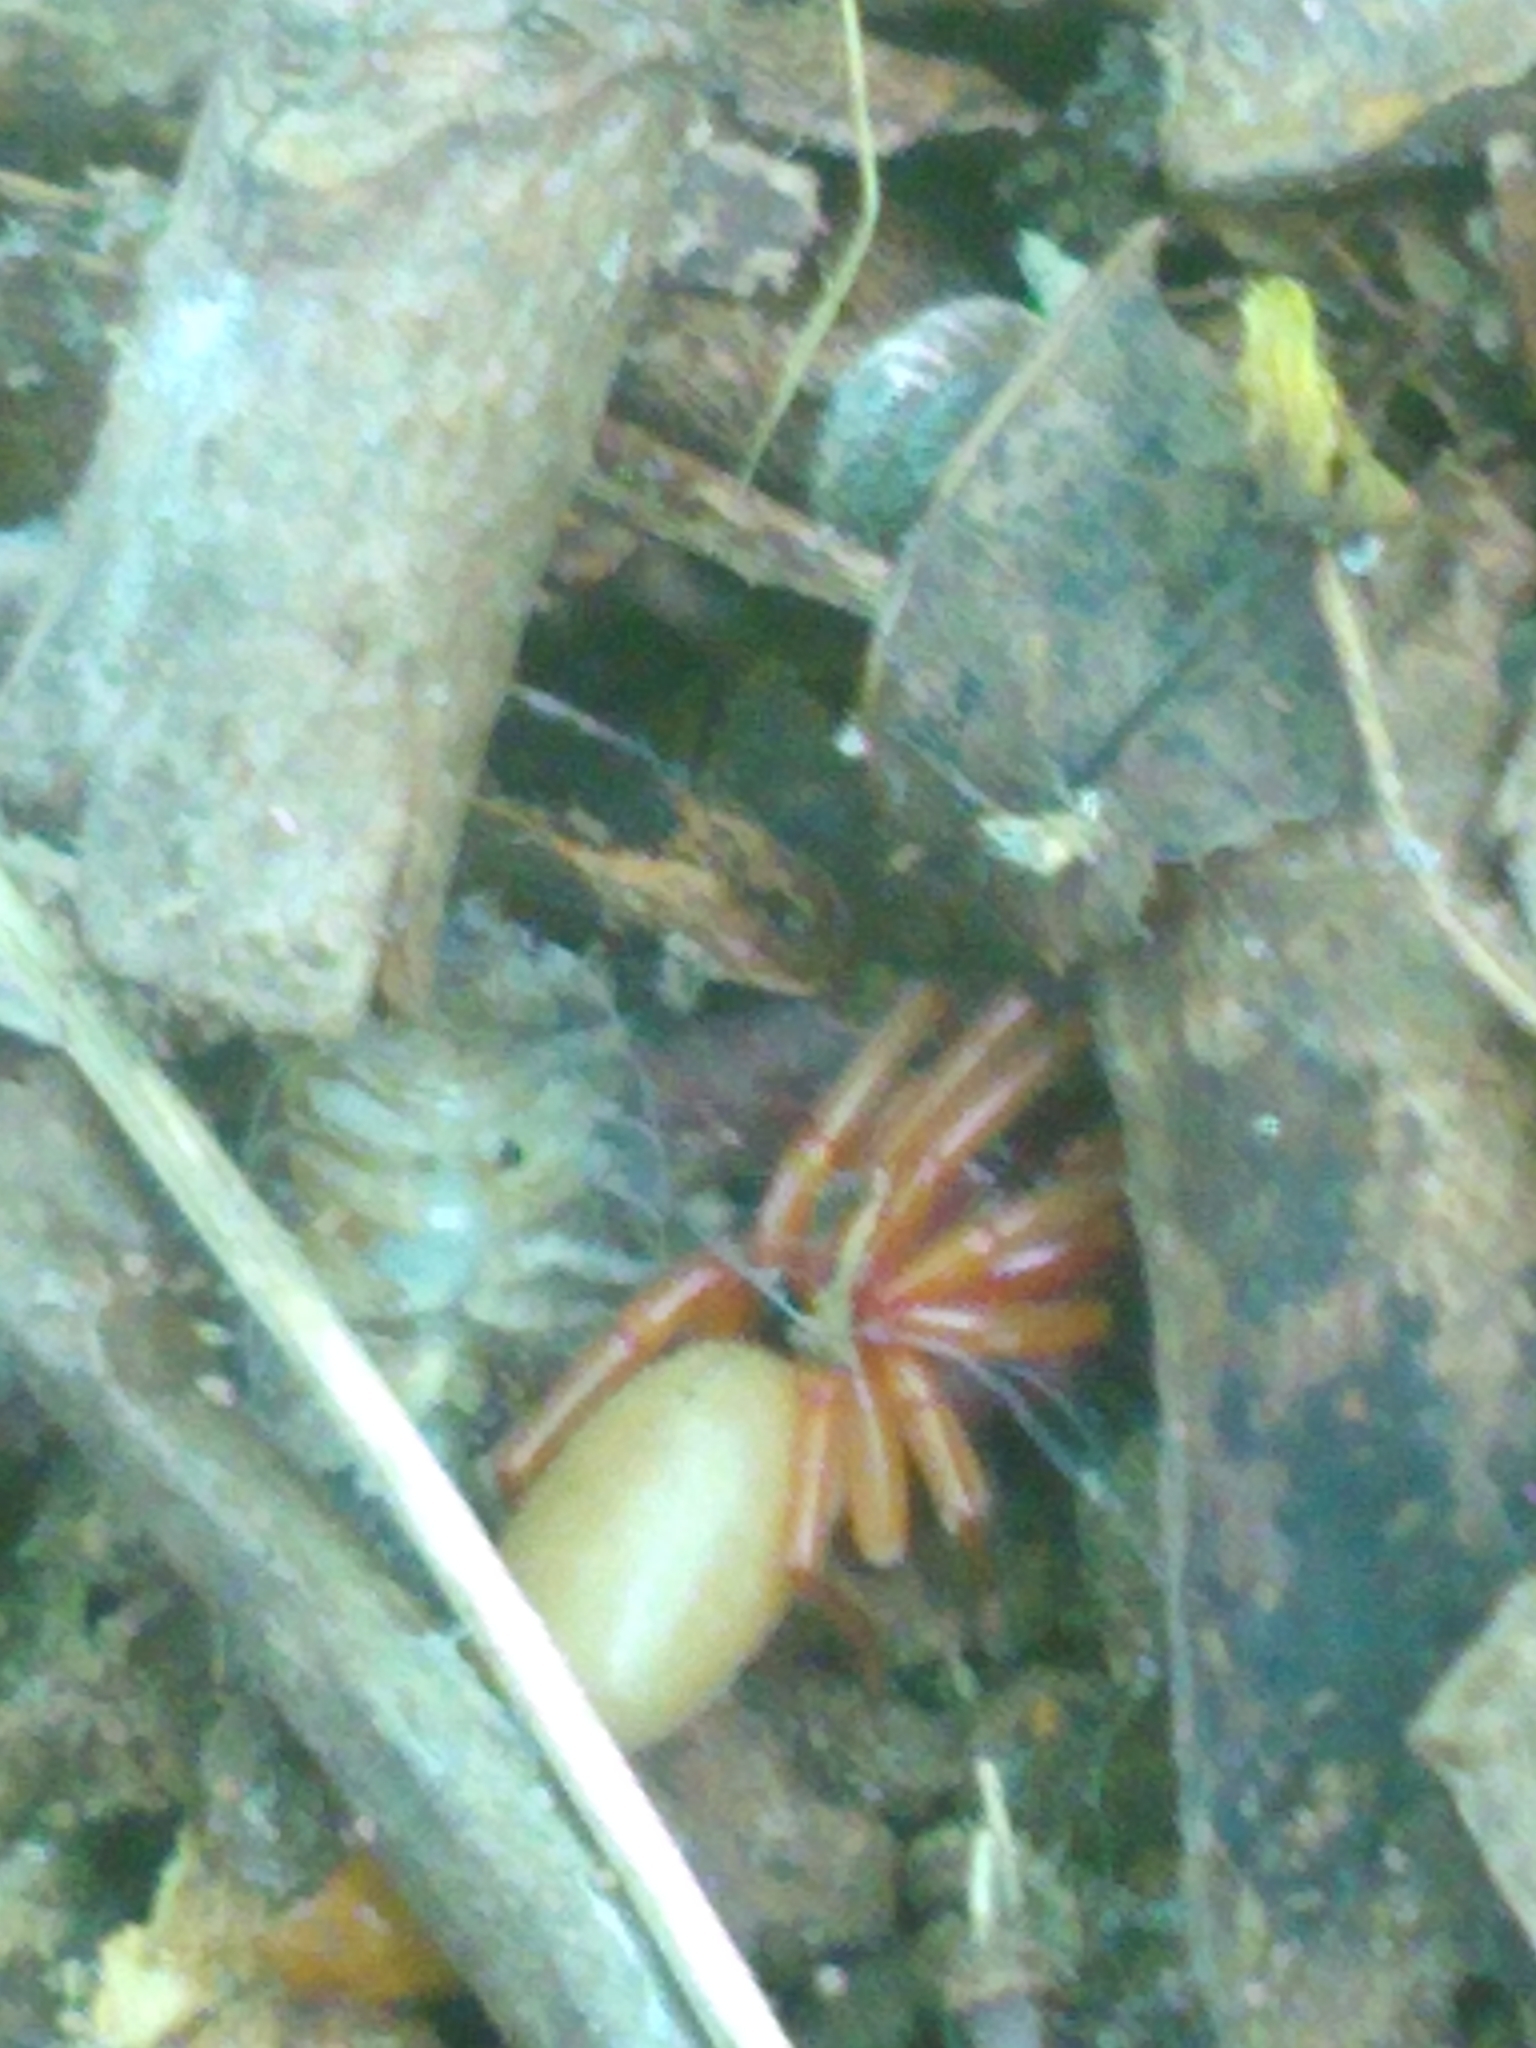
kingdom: Animalia
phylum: Arthropoda
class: Arachnida
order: Araneae
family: Dysderidae
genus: Dysdera
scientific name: Dysdera crocata
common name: Woodlouse spider
